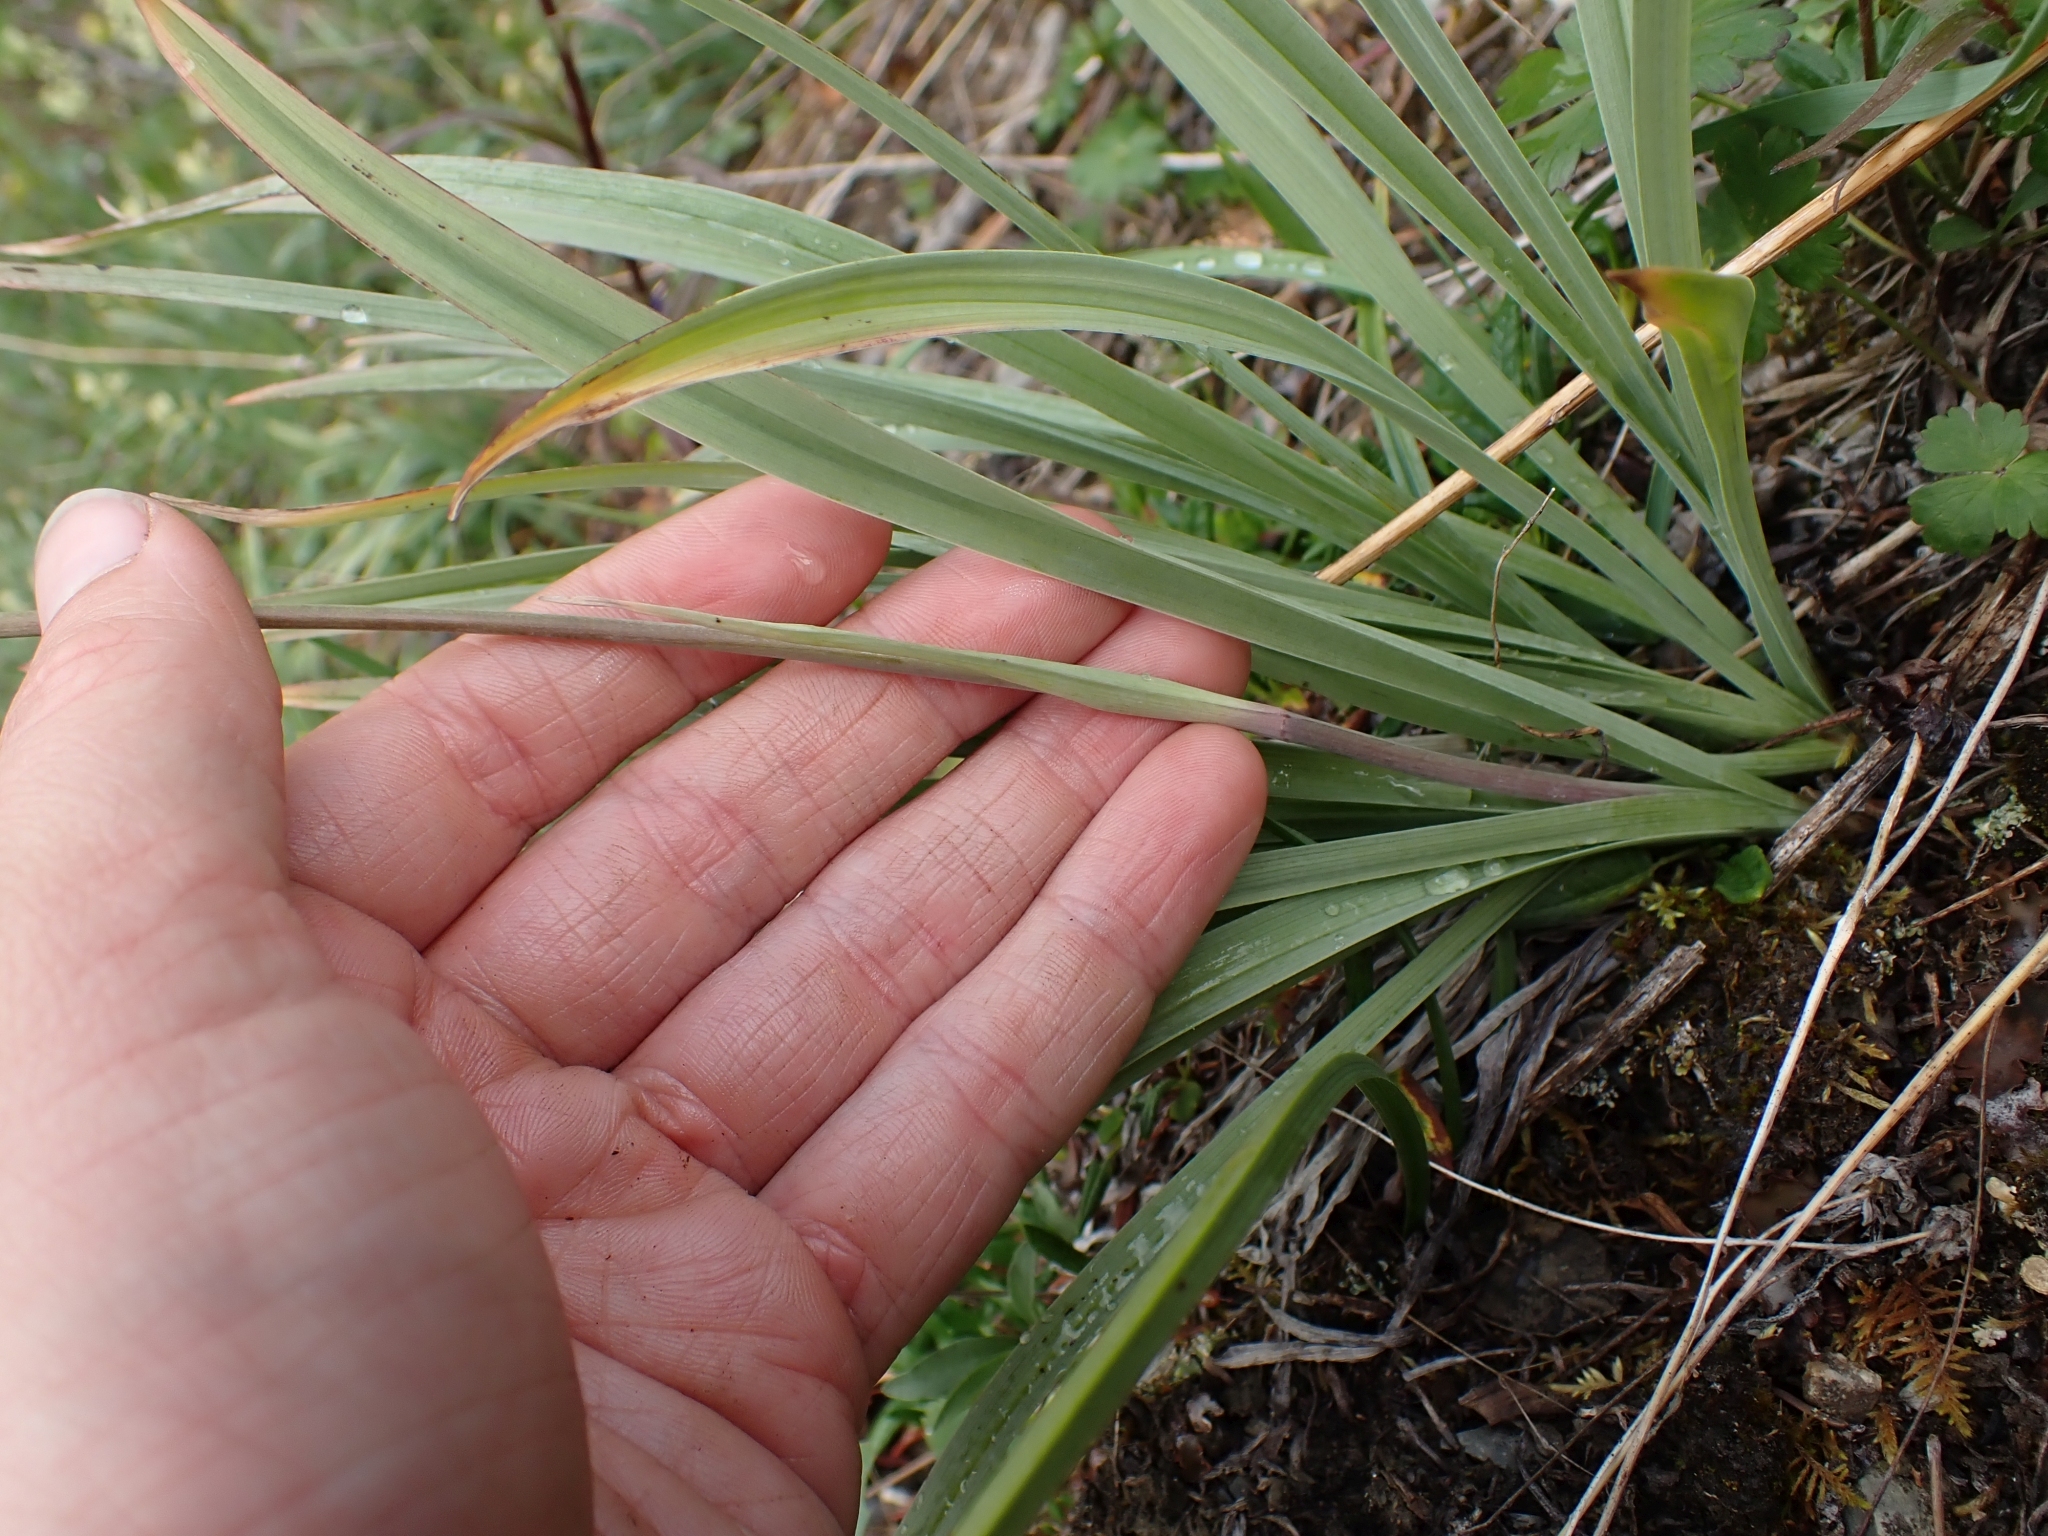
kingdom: Plantae
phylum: Tracheophyta
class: Liliopsida
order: Liliales
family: Melanthiaceae
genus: Anticlea
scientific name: Anticlea elegans
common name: Mountain death camas
